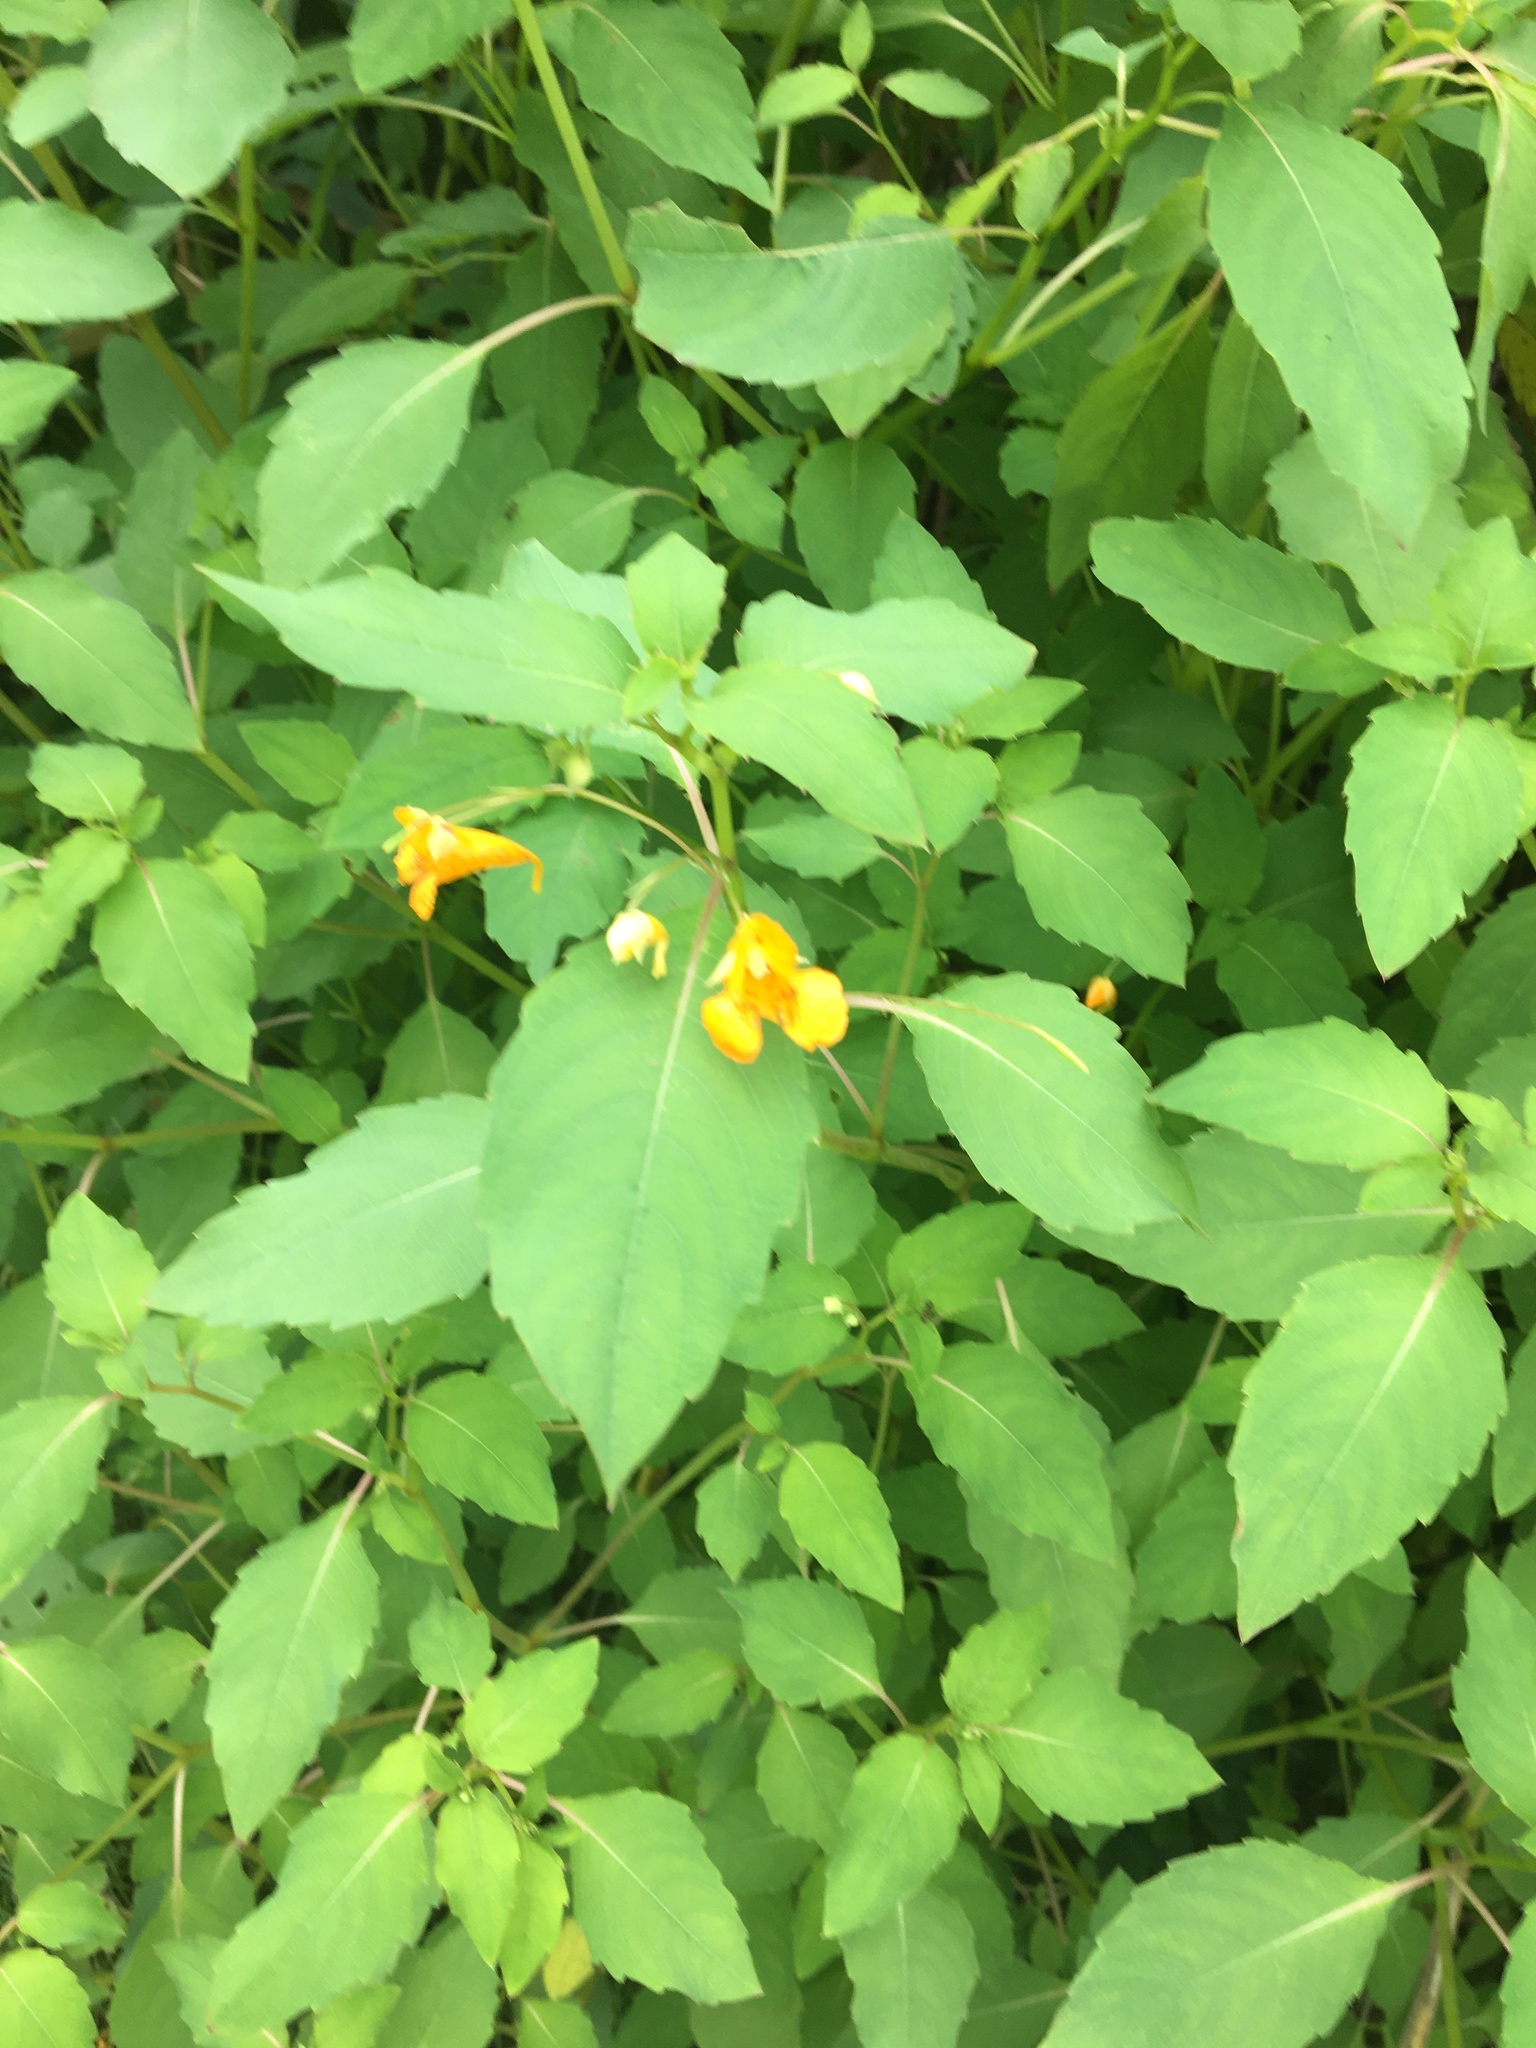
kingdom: Plantae
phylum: Tracheophyta
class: Magnoliopsida
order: Ericales
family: Balsaminaceae
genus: Impatiens
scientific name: Impatiens capensis
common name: Orange balsam
